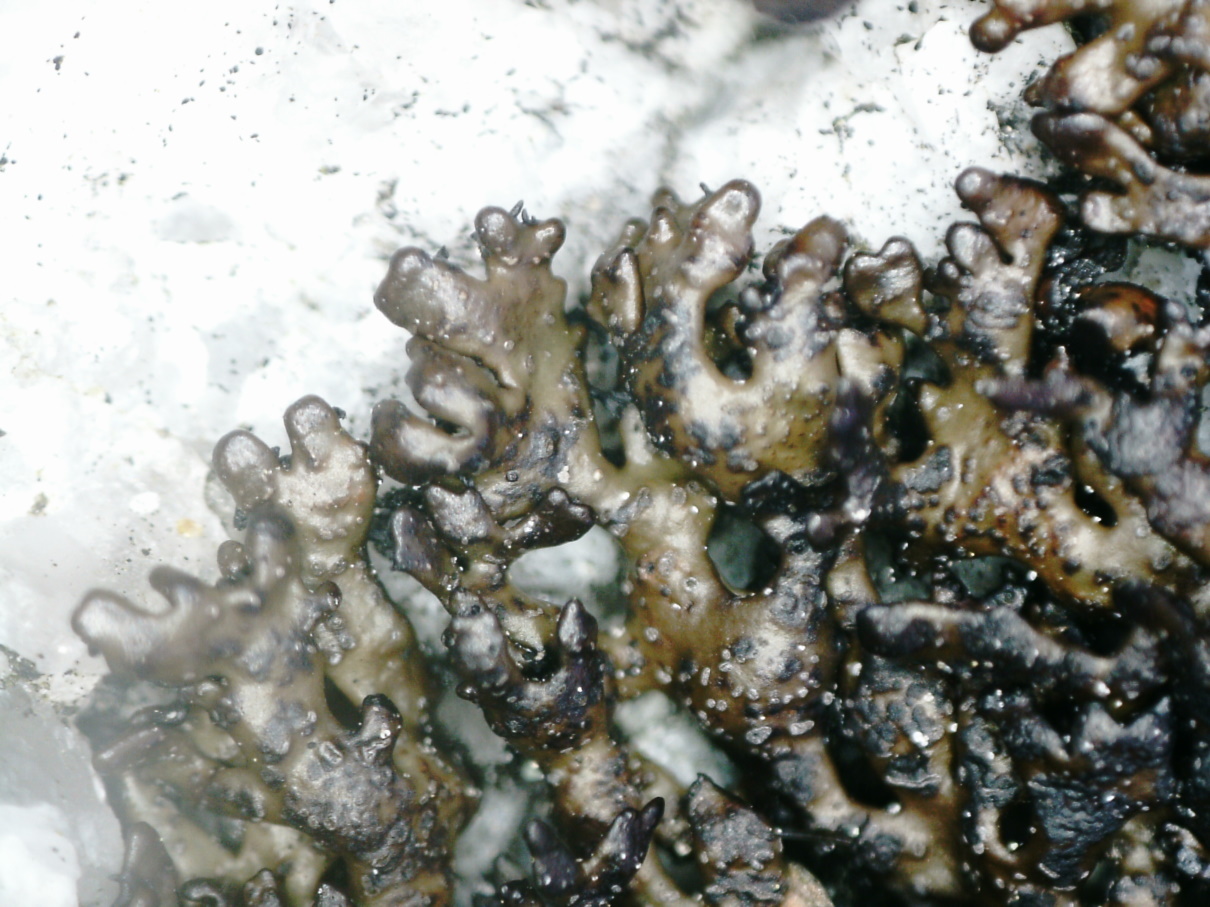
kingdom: Fungi
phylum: Ascomycota
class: Lecanoromycetes
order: Lecanorales
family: Parmeliaceae
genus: Melanelia
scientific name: Melanelia stygia
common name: Alpine camouflage lichen
